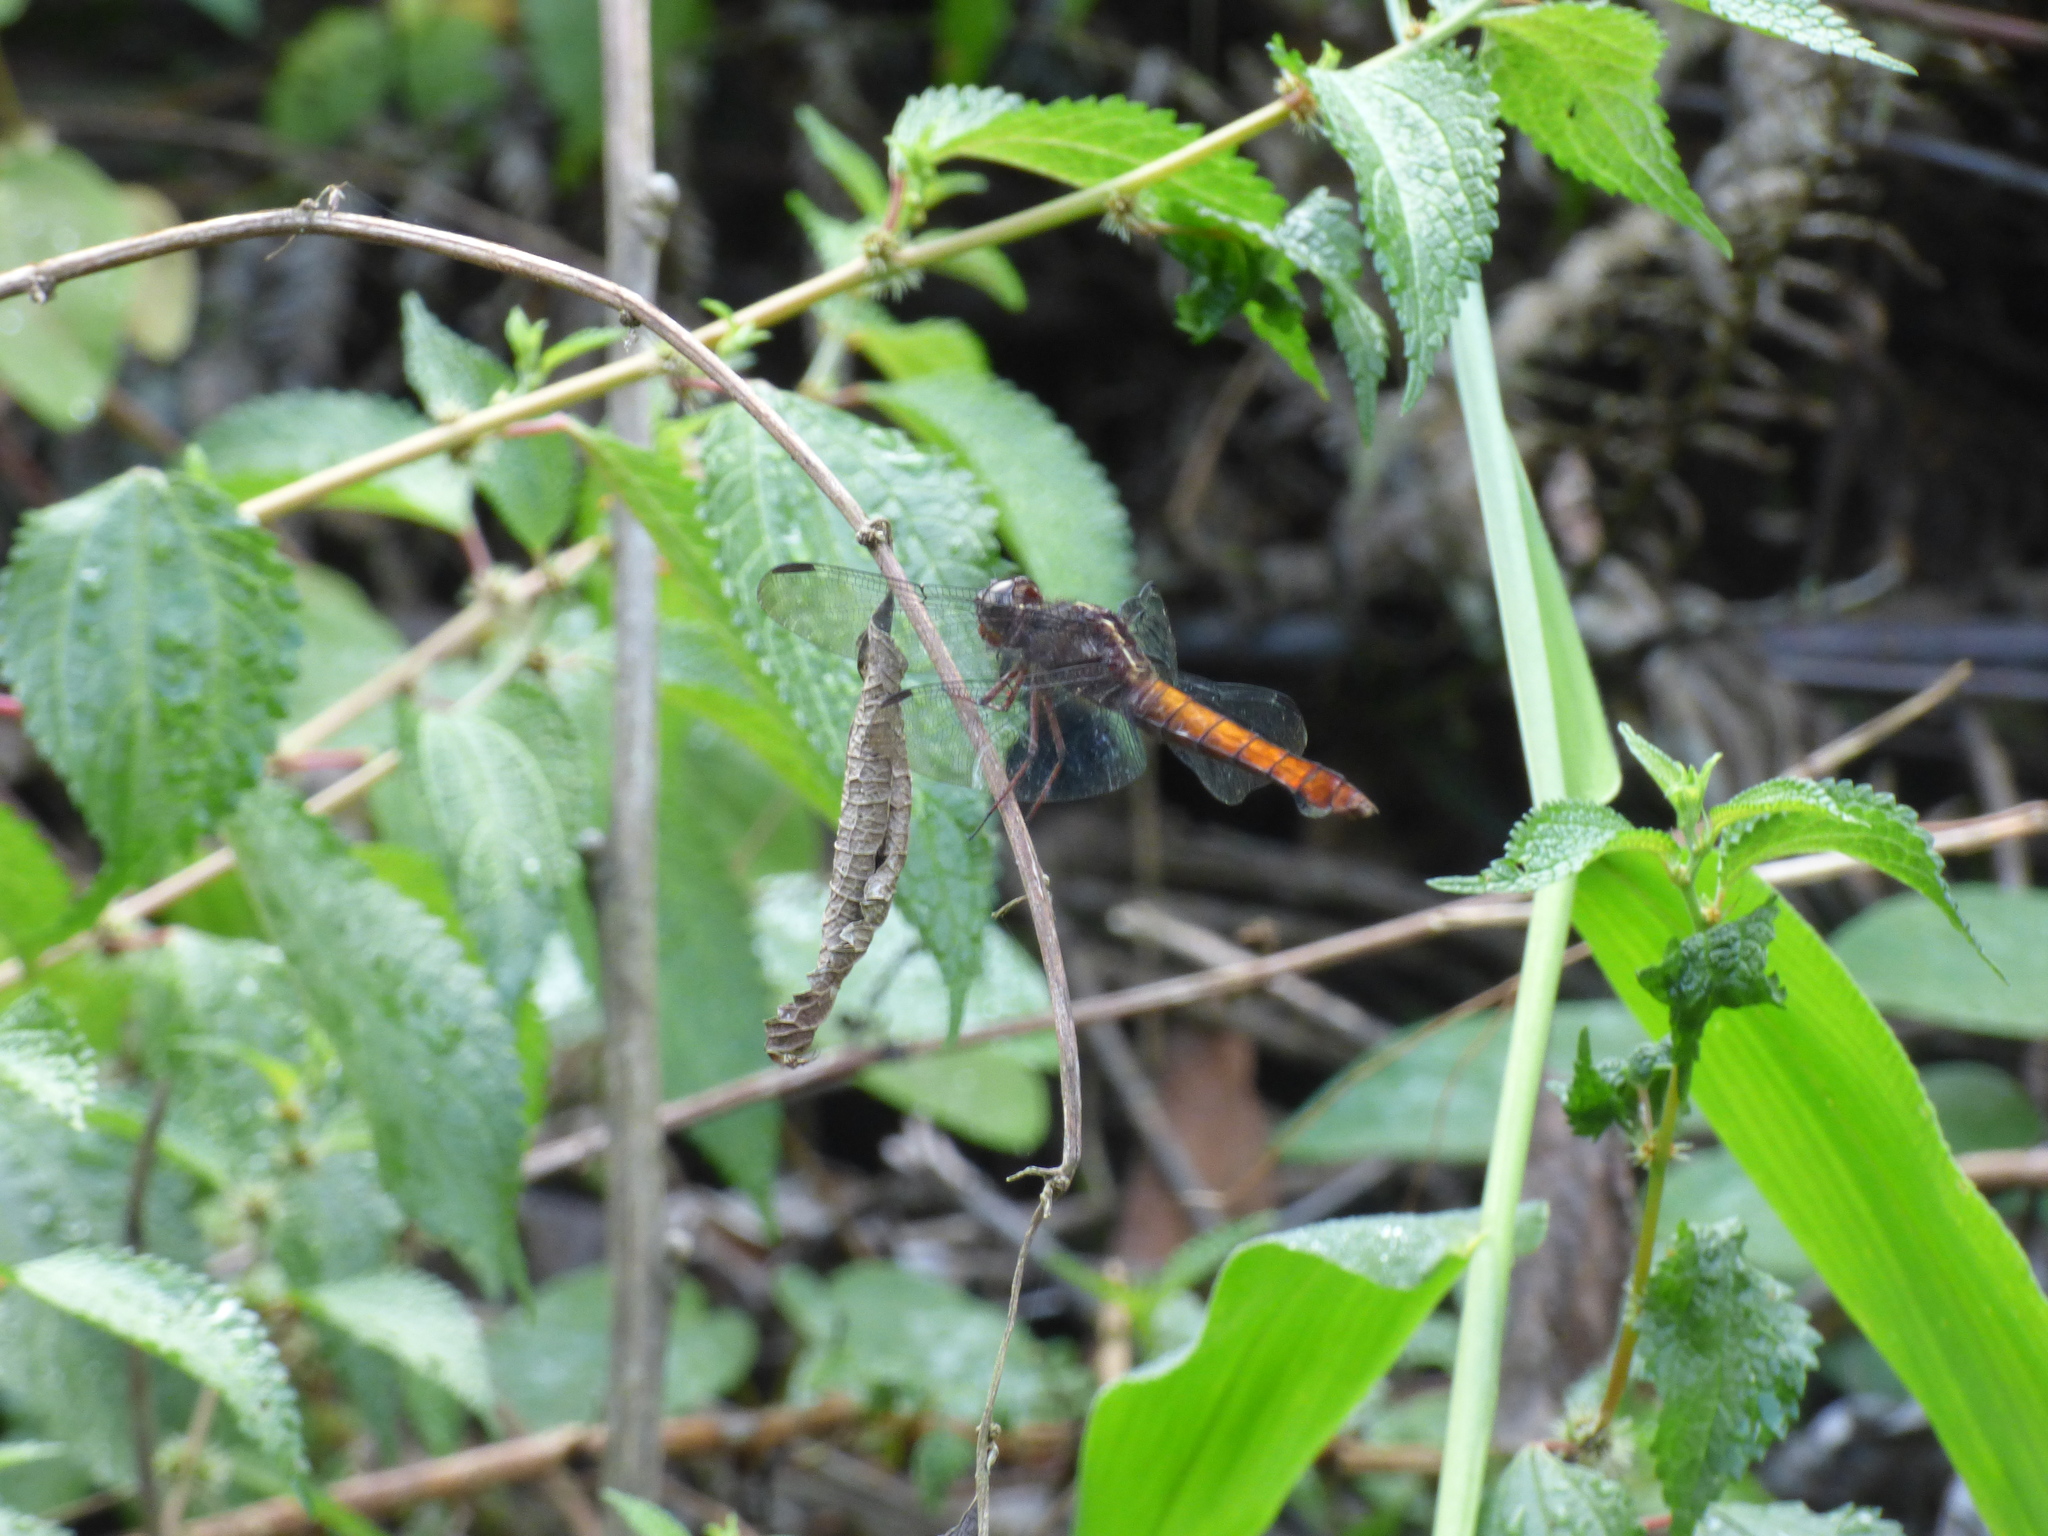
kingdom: Animalia
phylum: Arthropoda
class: Insecta
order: Odonata
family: Libellulidae
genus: Libellula
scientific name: Libellula herculea
